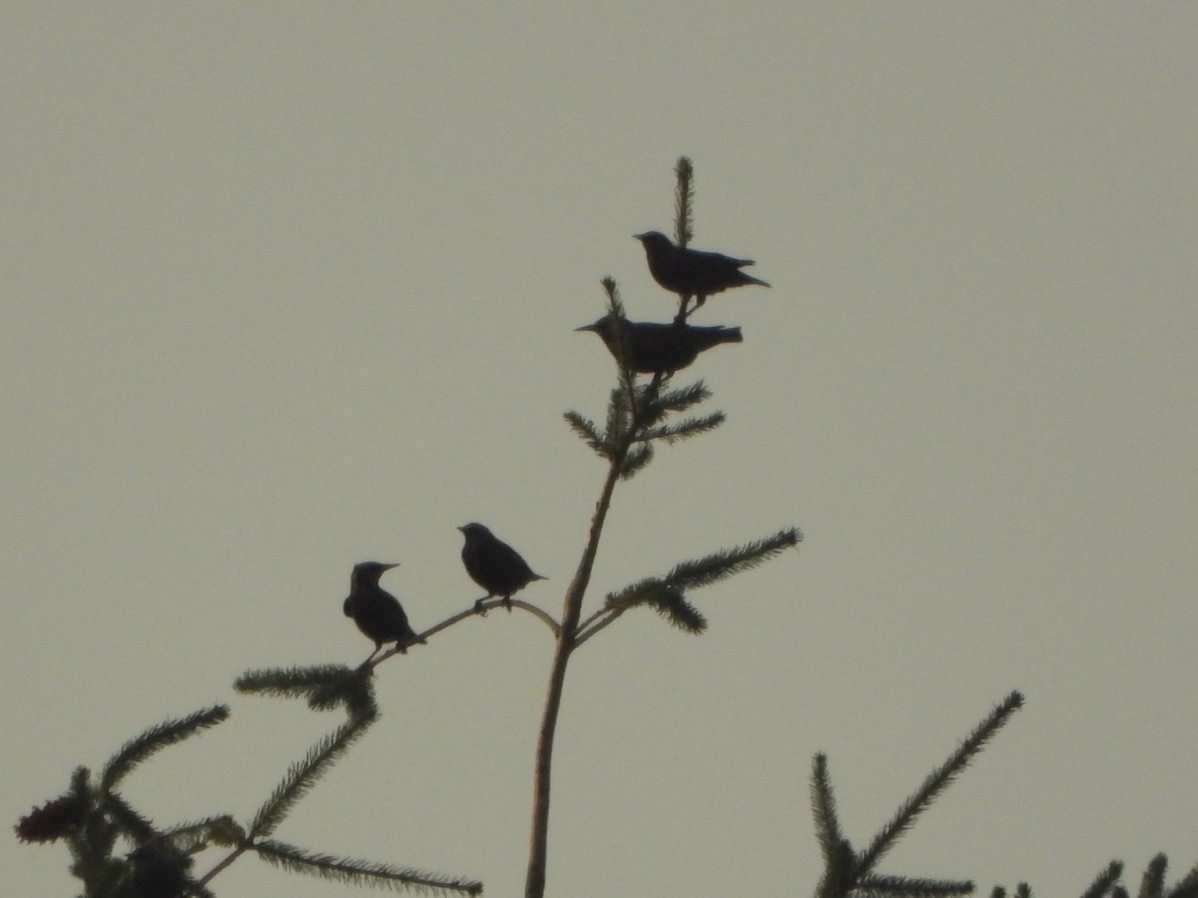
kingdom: Animalia
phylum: Chordata
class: Aves
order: Passeriformes
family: Sturnidae
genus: Sturnus
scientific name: Sturnus vulgaris
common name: Common starling
